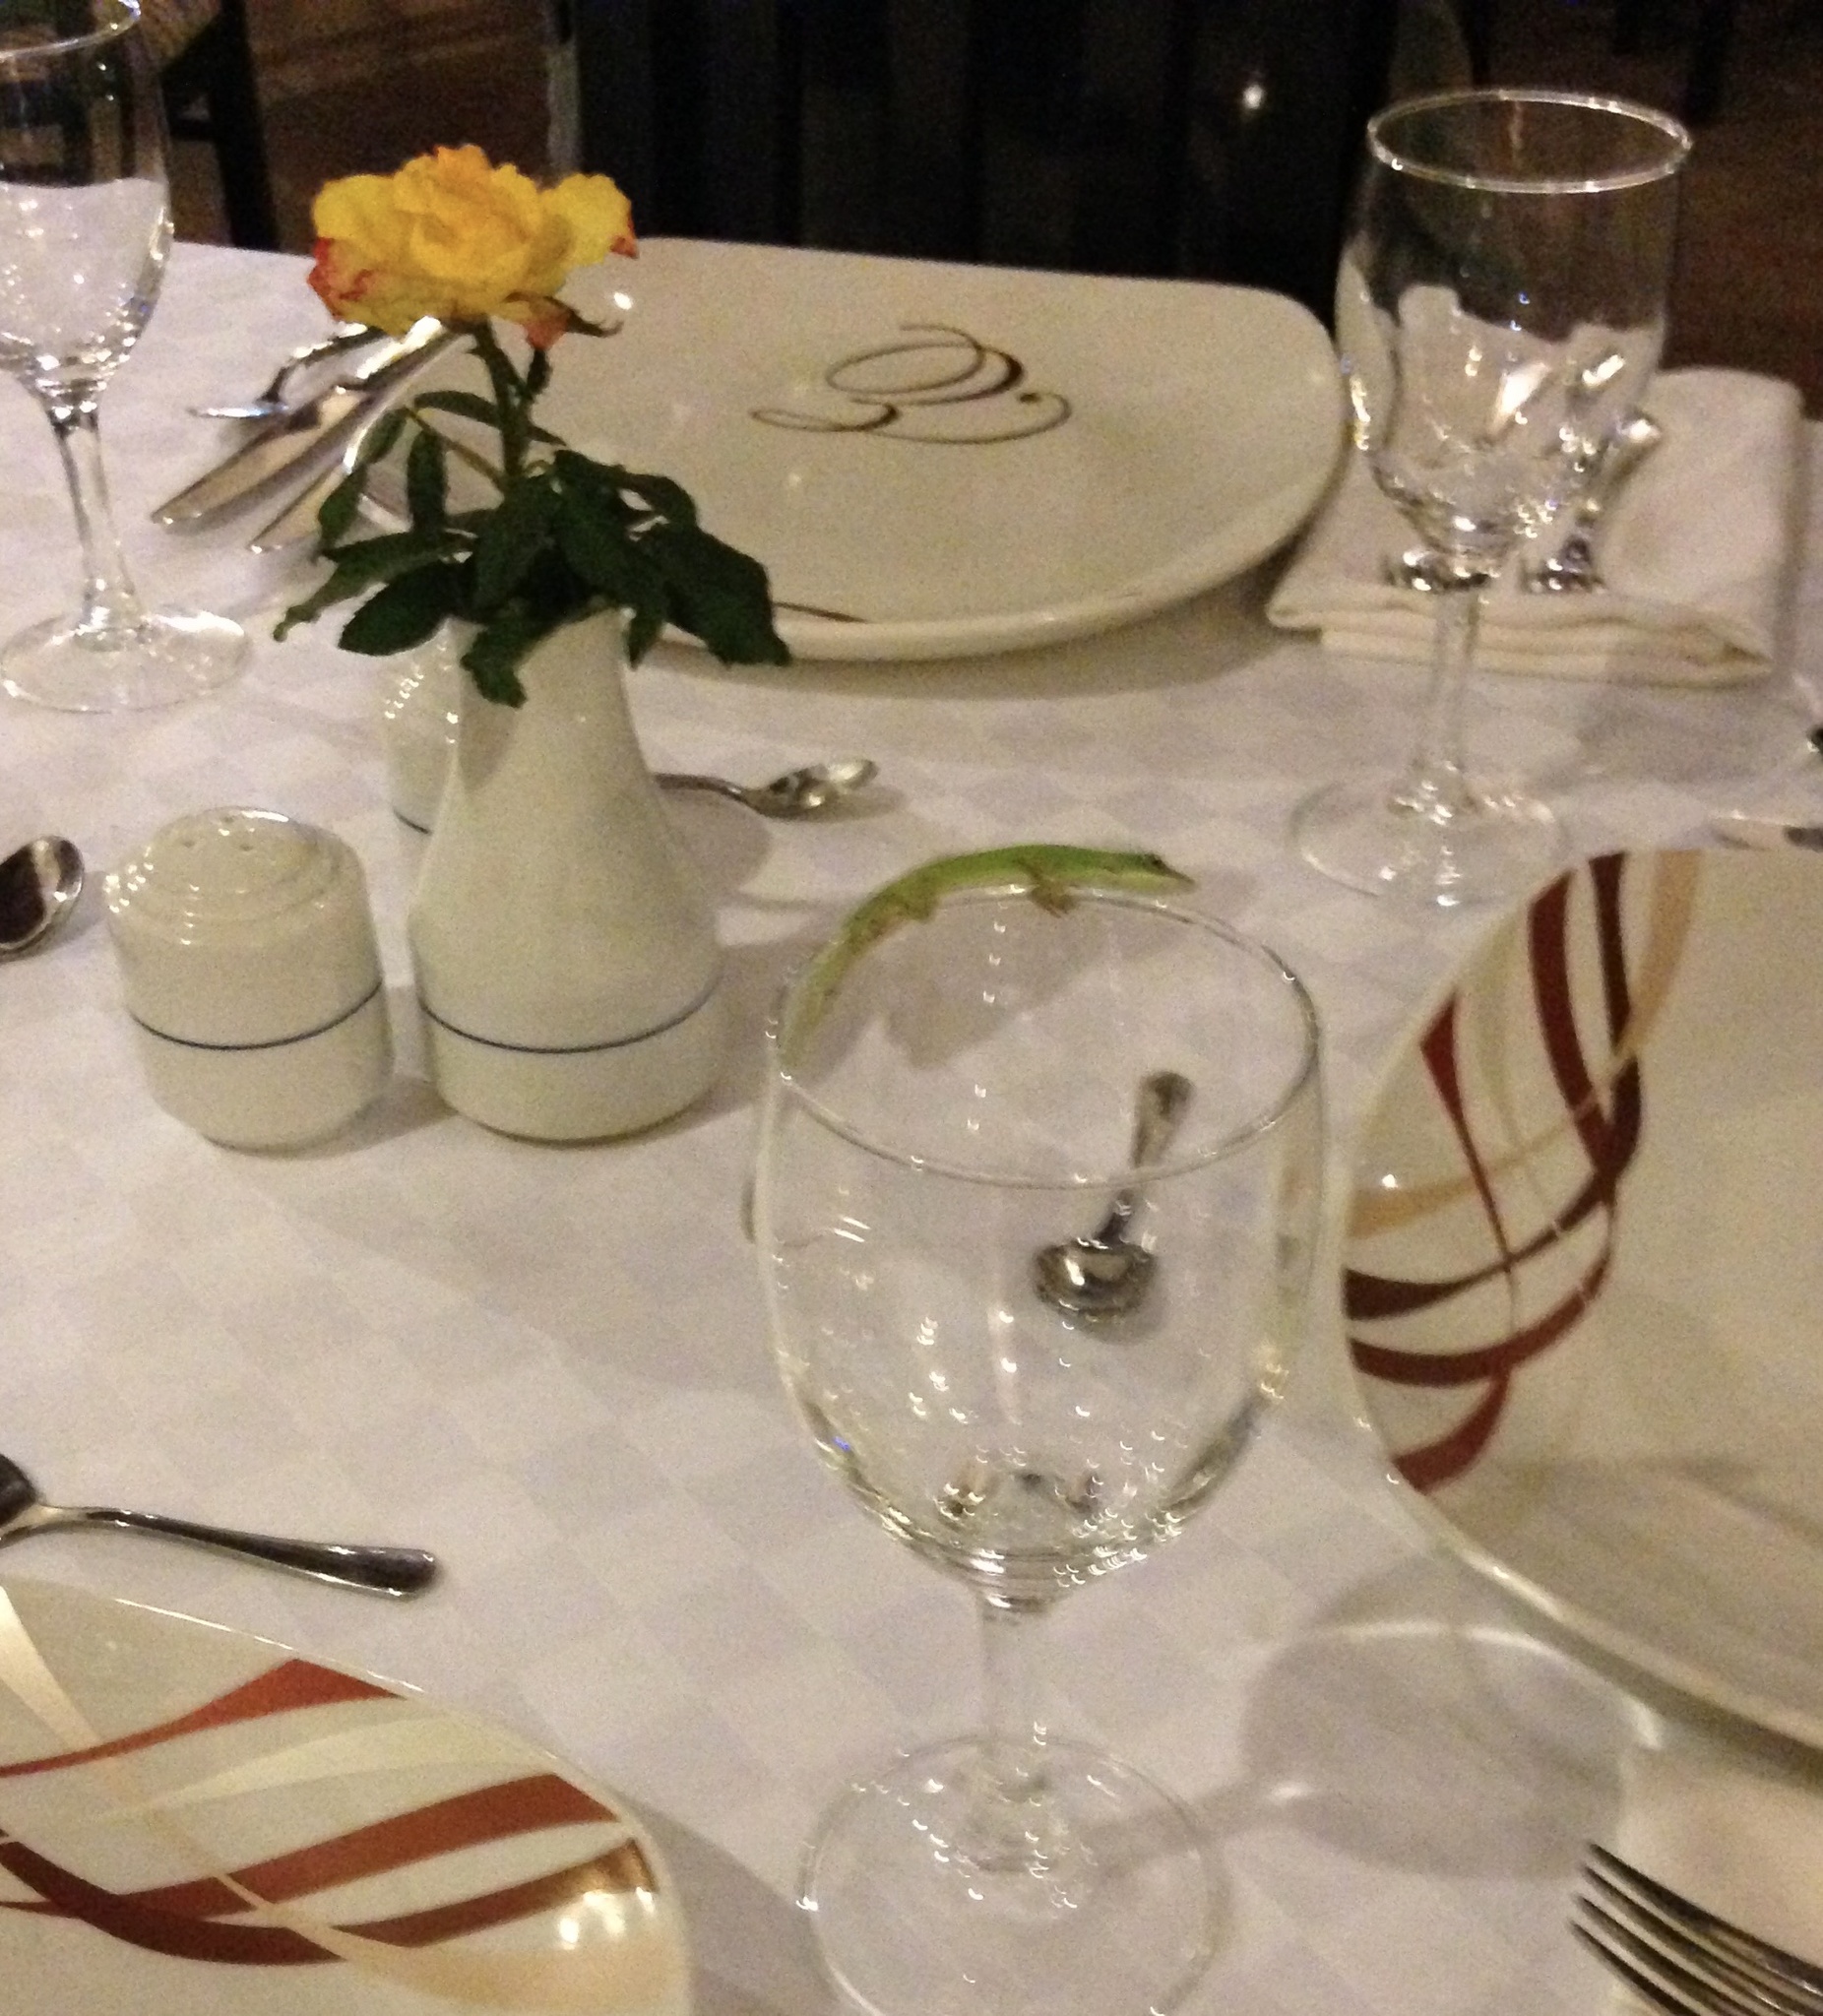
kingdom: Animalia
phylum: Chordata
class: Squamata
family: Dactyloidae
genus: Anolis
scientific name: Anolis allisoni
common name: Allison's anole
